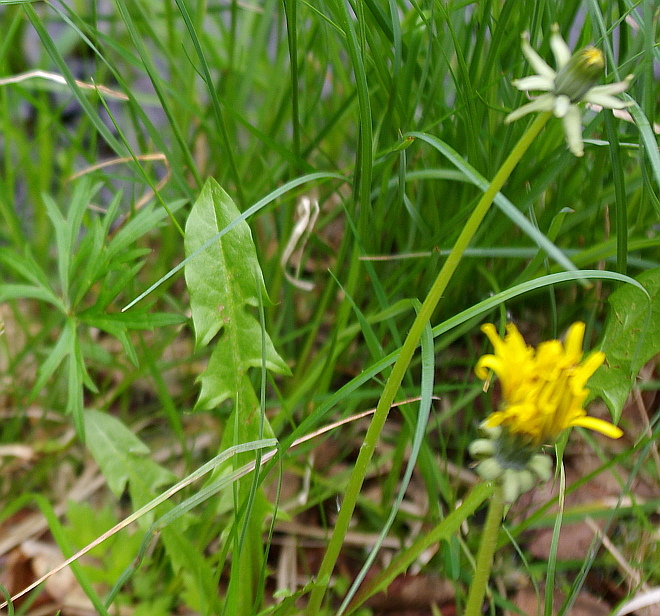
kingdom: Plantae
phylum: Tracheophyta
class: Magnoliopsida
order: Asterales
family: Asteraceae
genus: Taraxacum
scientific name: Taraxacum officinale
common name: Common dandelion
